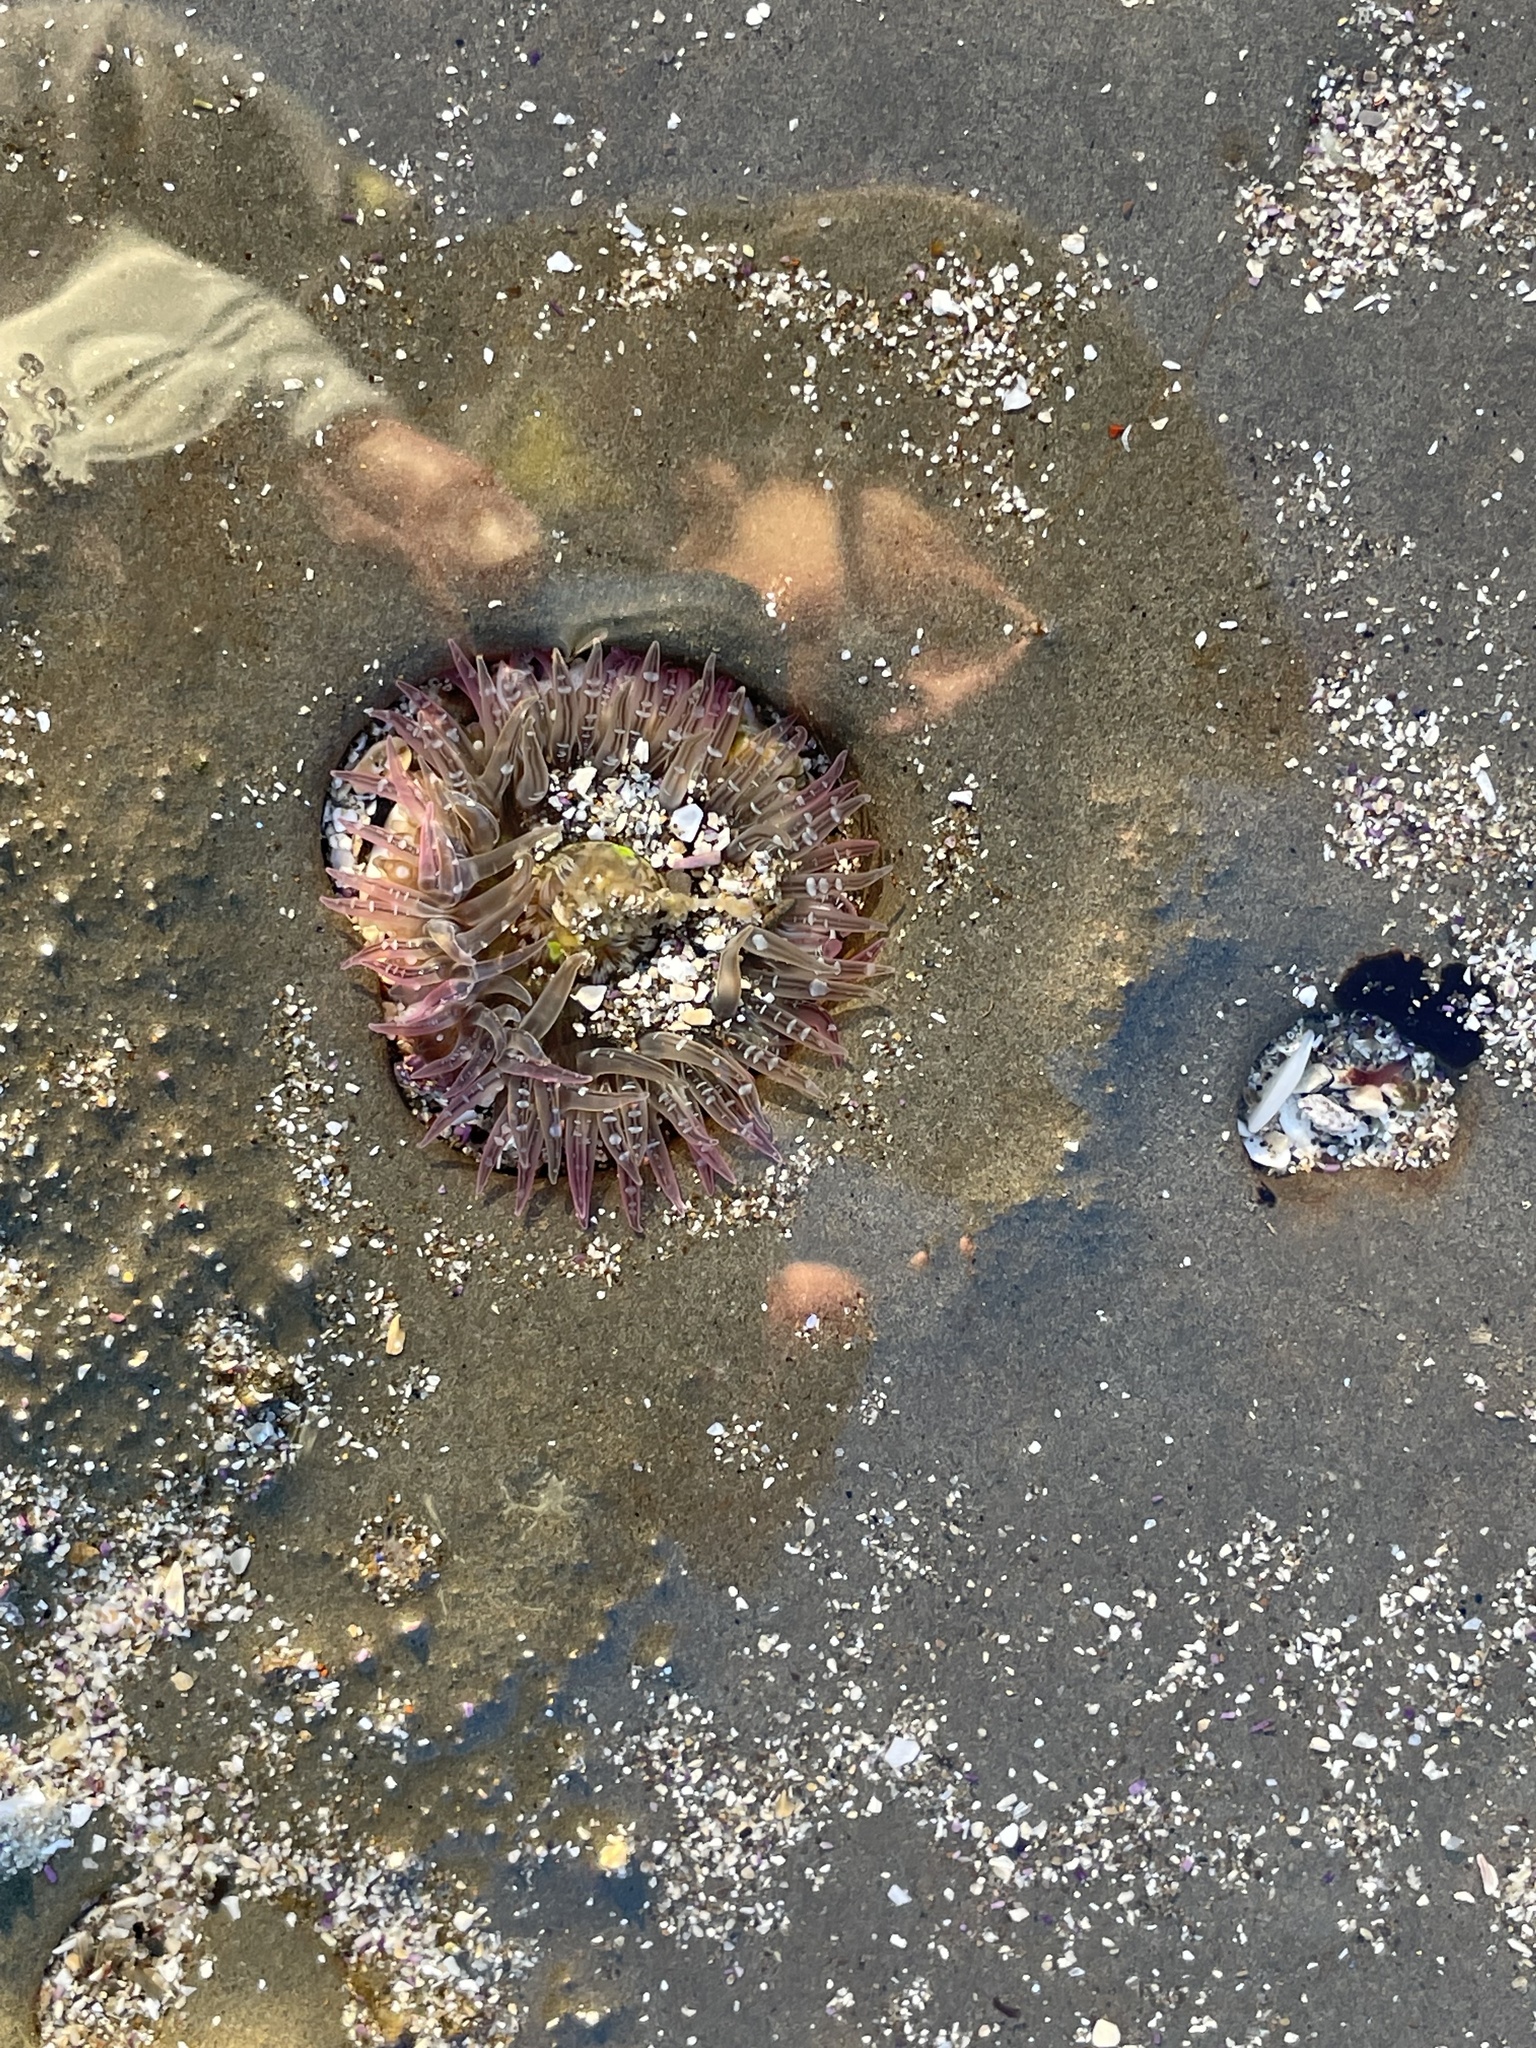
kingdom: Animalia
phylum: Cnidaria
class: Anthozoa
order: Actiniaria
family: Actiniidae
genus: Anthopleura
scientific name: Anthopleura artemisia
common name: Buried sea anemone
